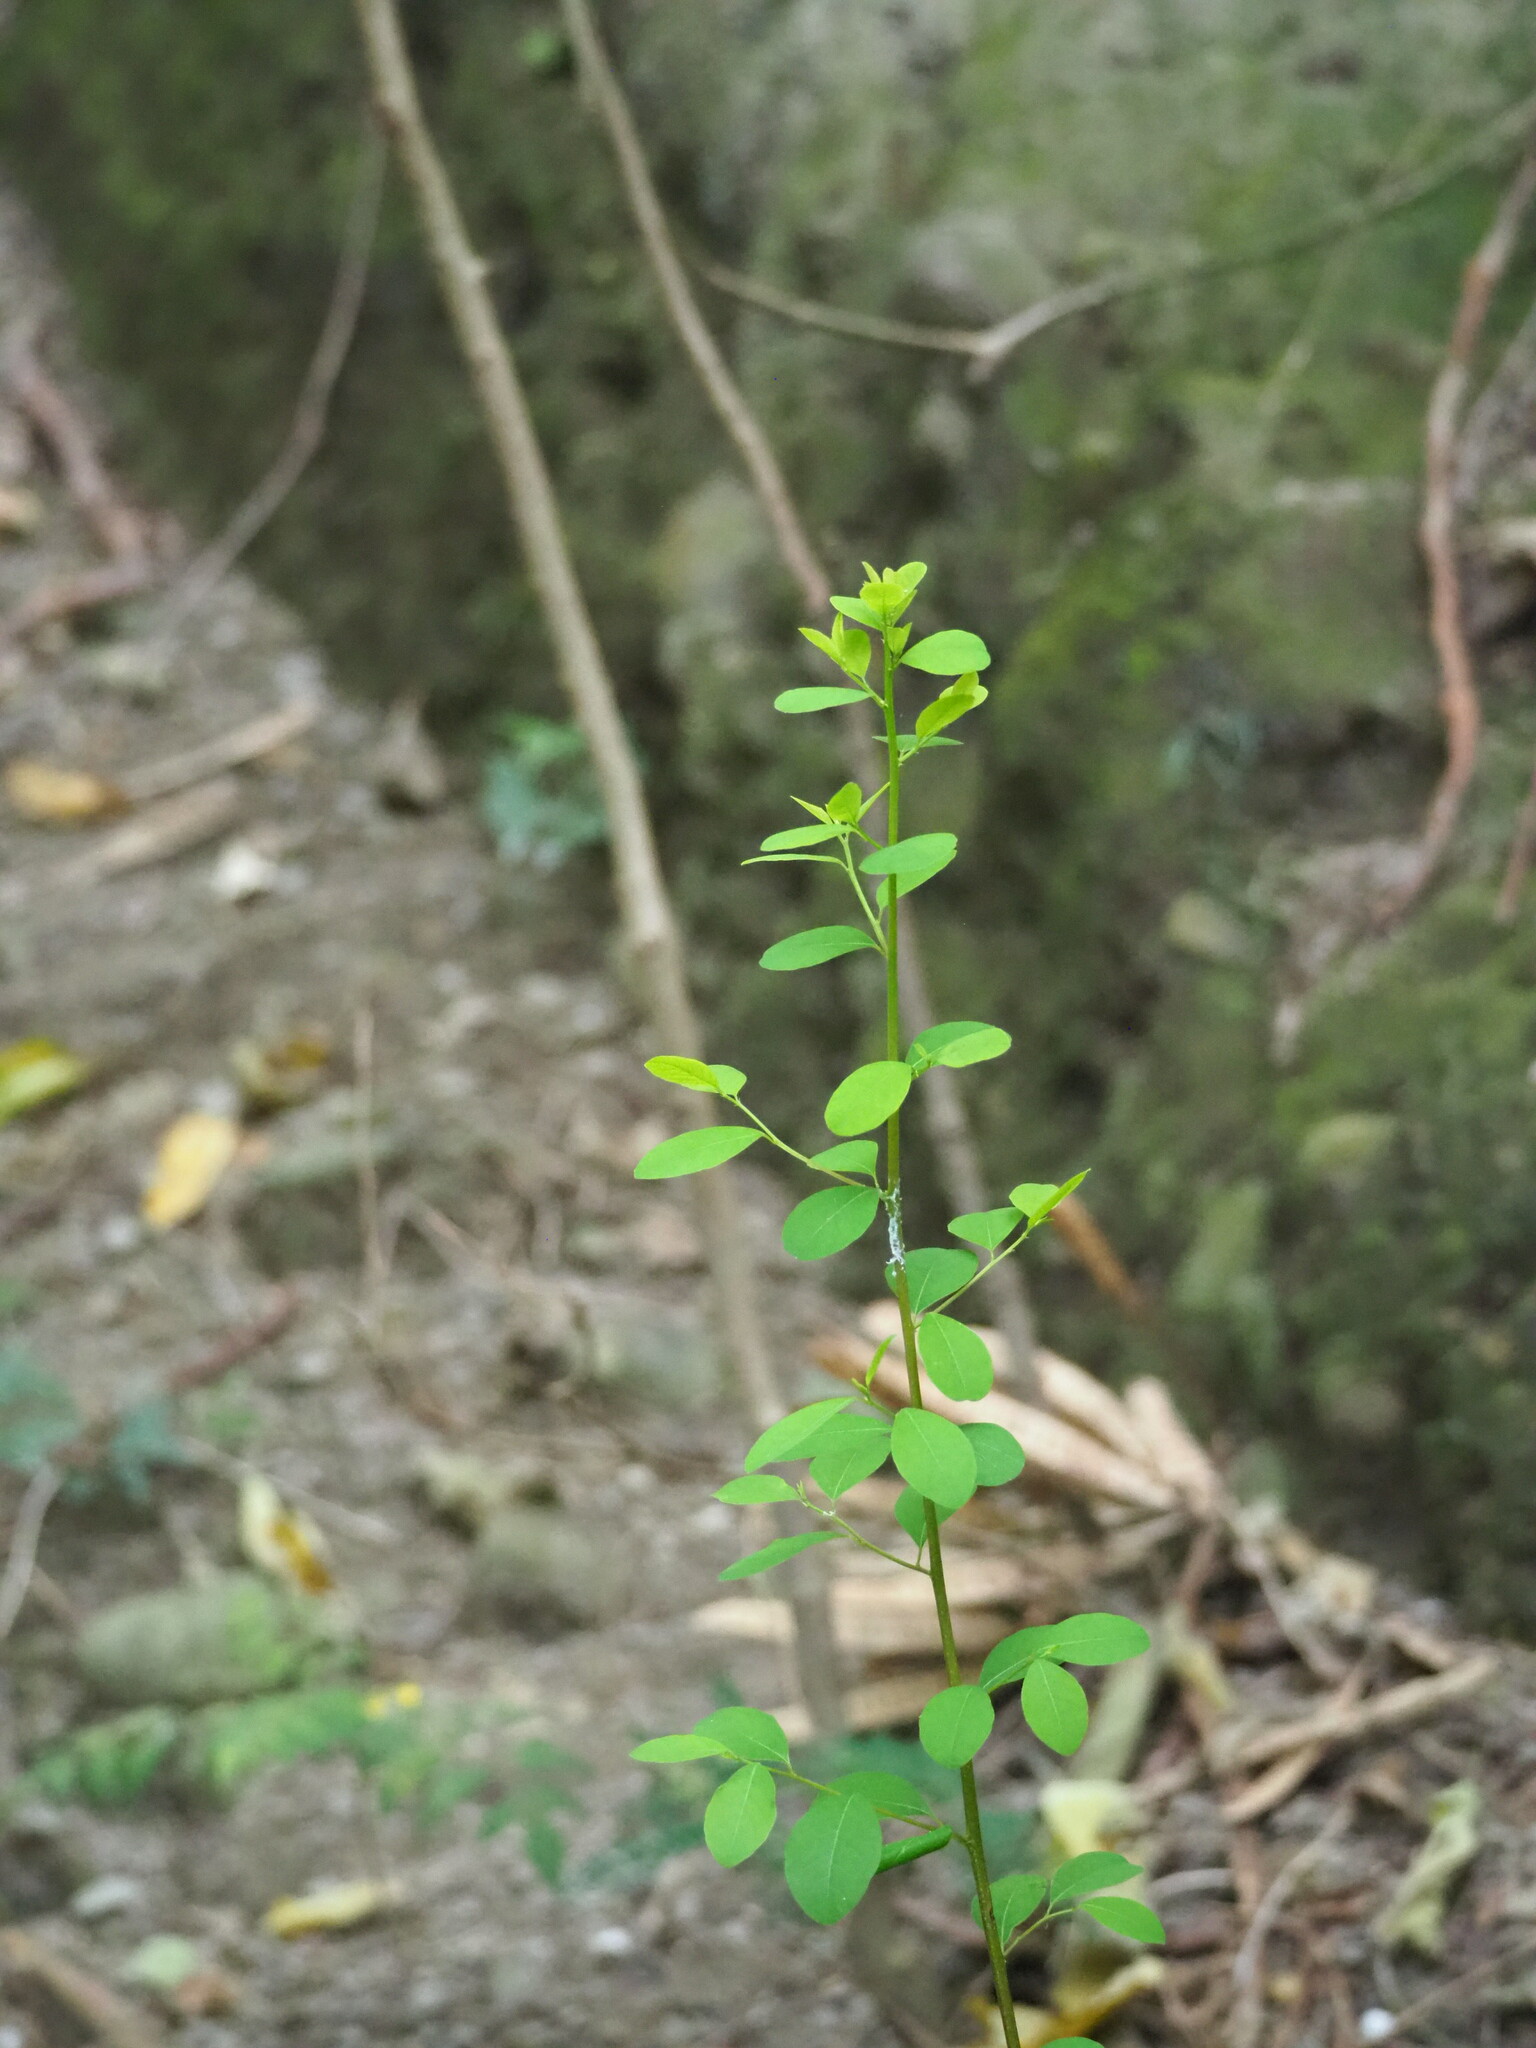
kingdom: Plantae
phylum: Tracheophyta
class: Magnoliopsida
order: Malpighiales
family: Phyllanthaceae
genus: Flueggea
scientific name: Flueggea virosa
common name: Common bushweed
